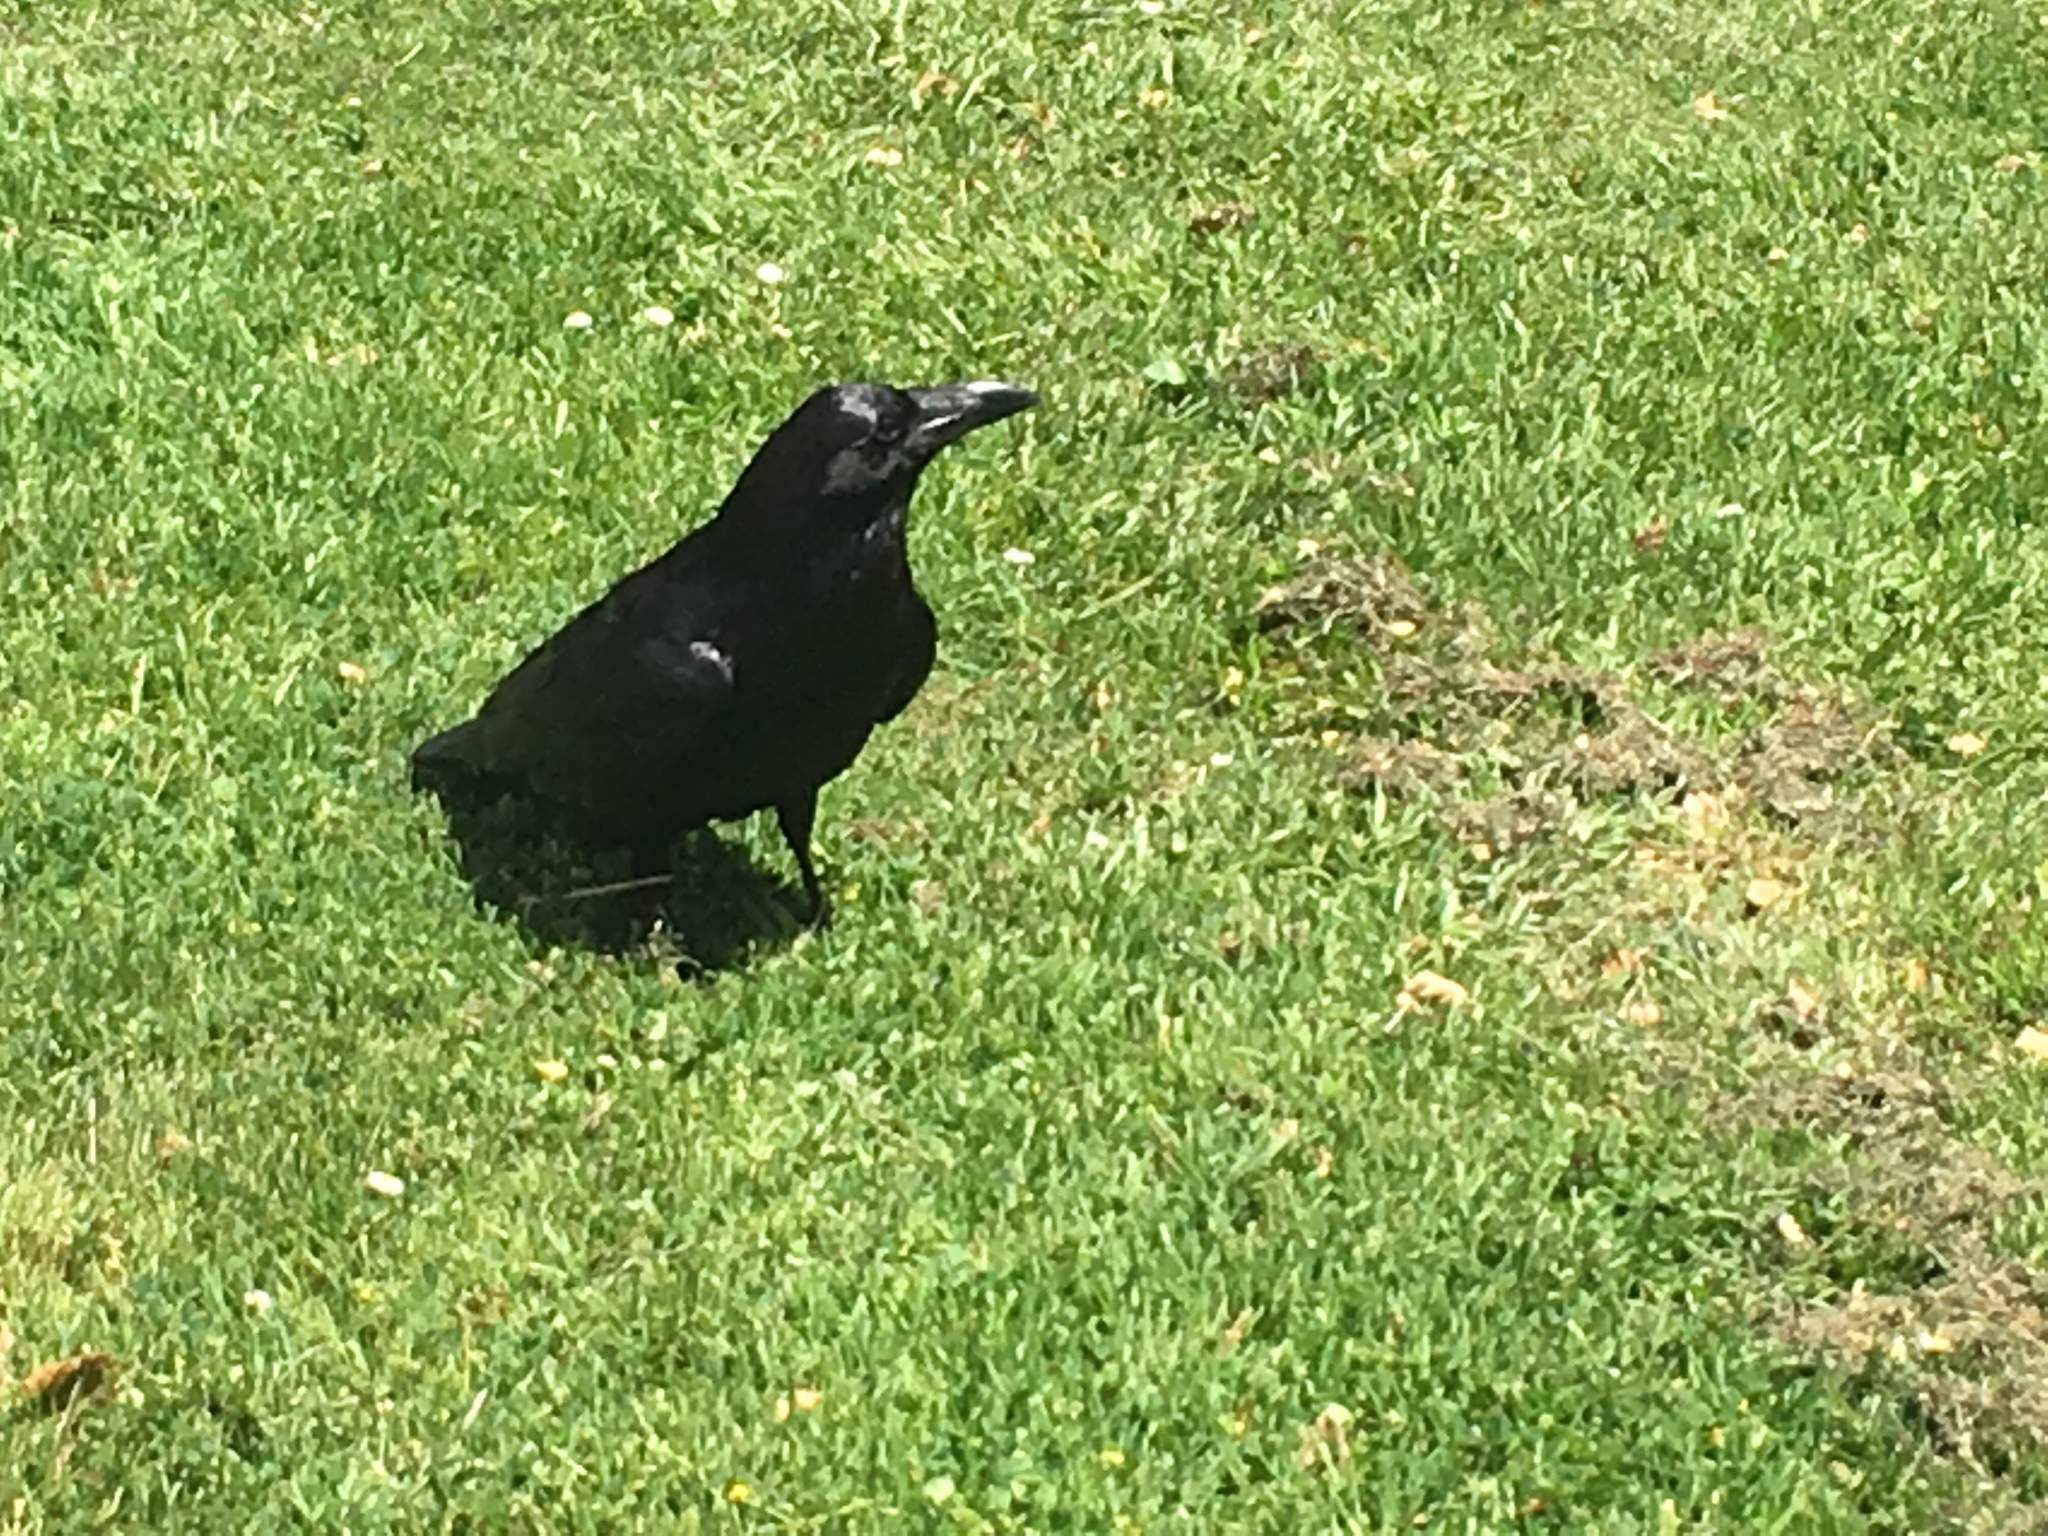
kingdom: Animalia
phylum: Chordata
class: Aves
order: Passeriformes
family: Corvidae
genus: Corvus
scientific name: Corvus corax
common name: Common raven
